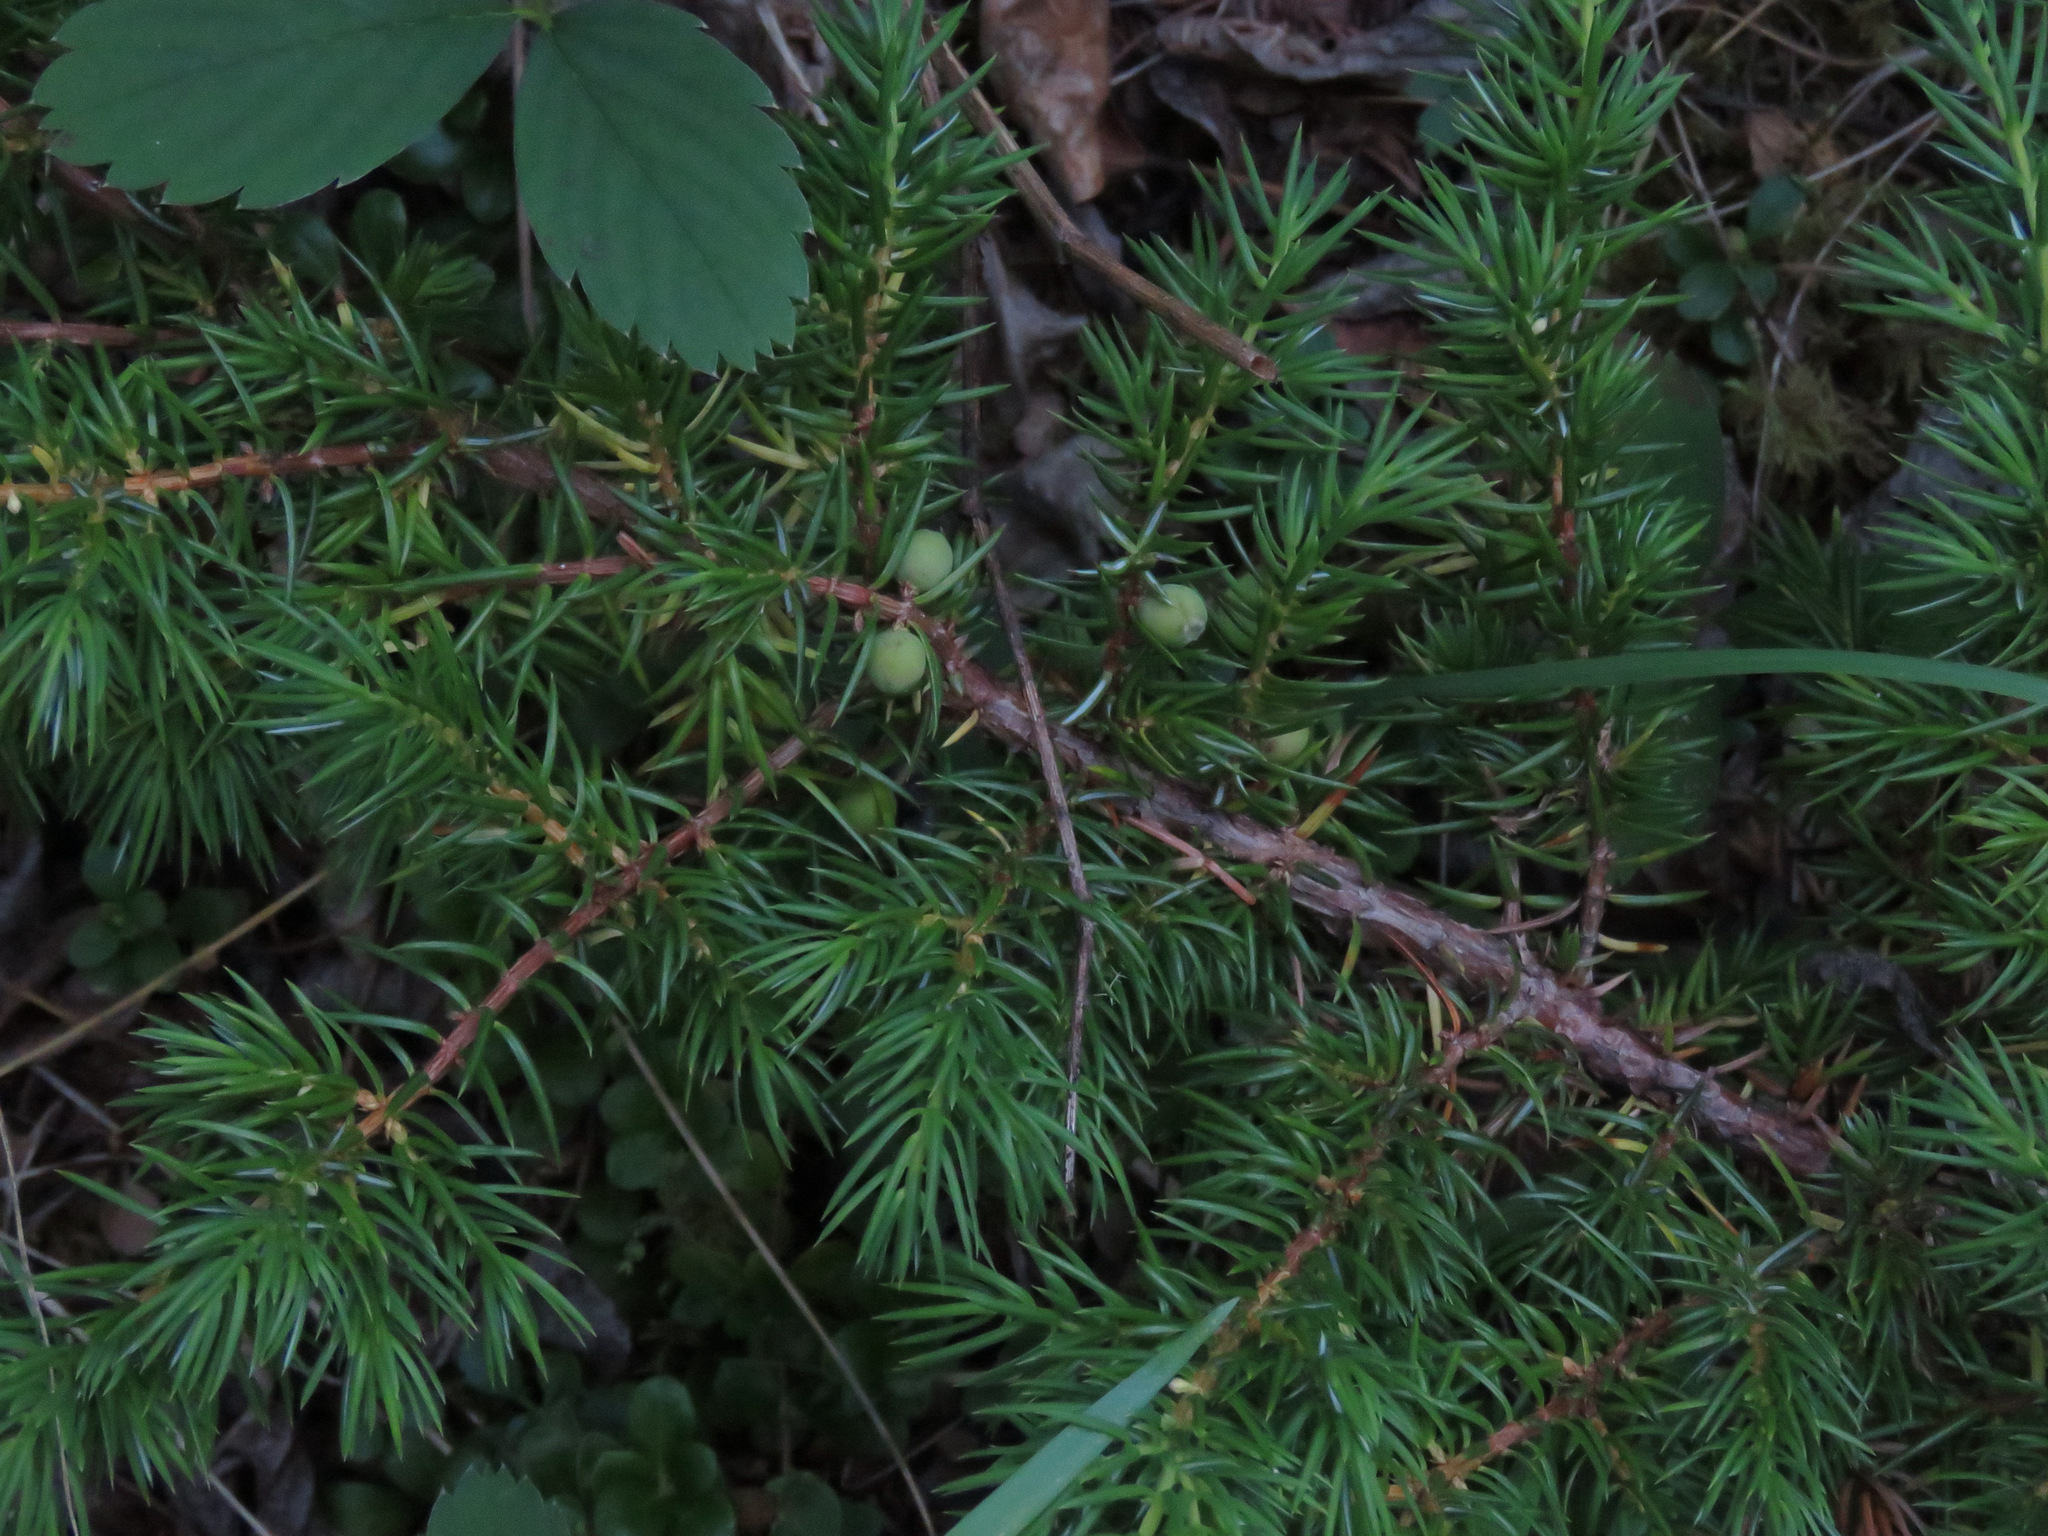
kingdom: Plantae
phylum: Tracheophyta
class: Pinopsida
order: Pinales
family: Cupressaceae
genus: Juniperus
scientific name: Juniperus communis
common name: Common juniper
